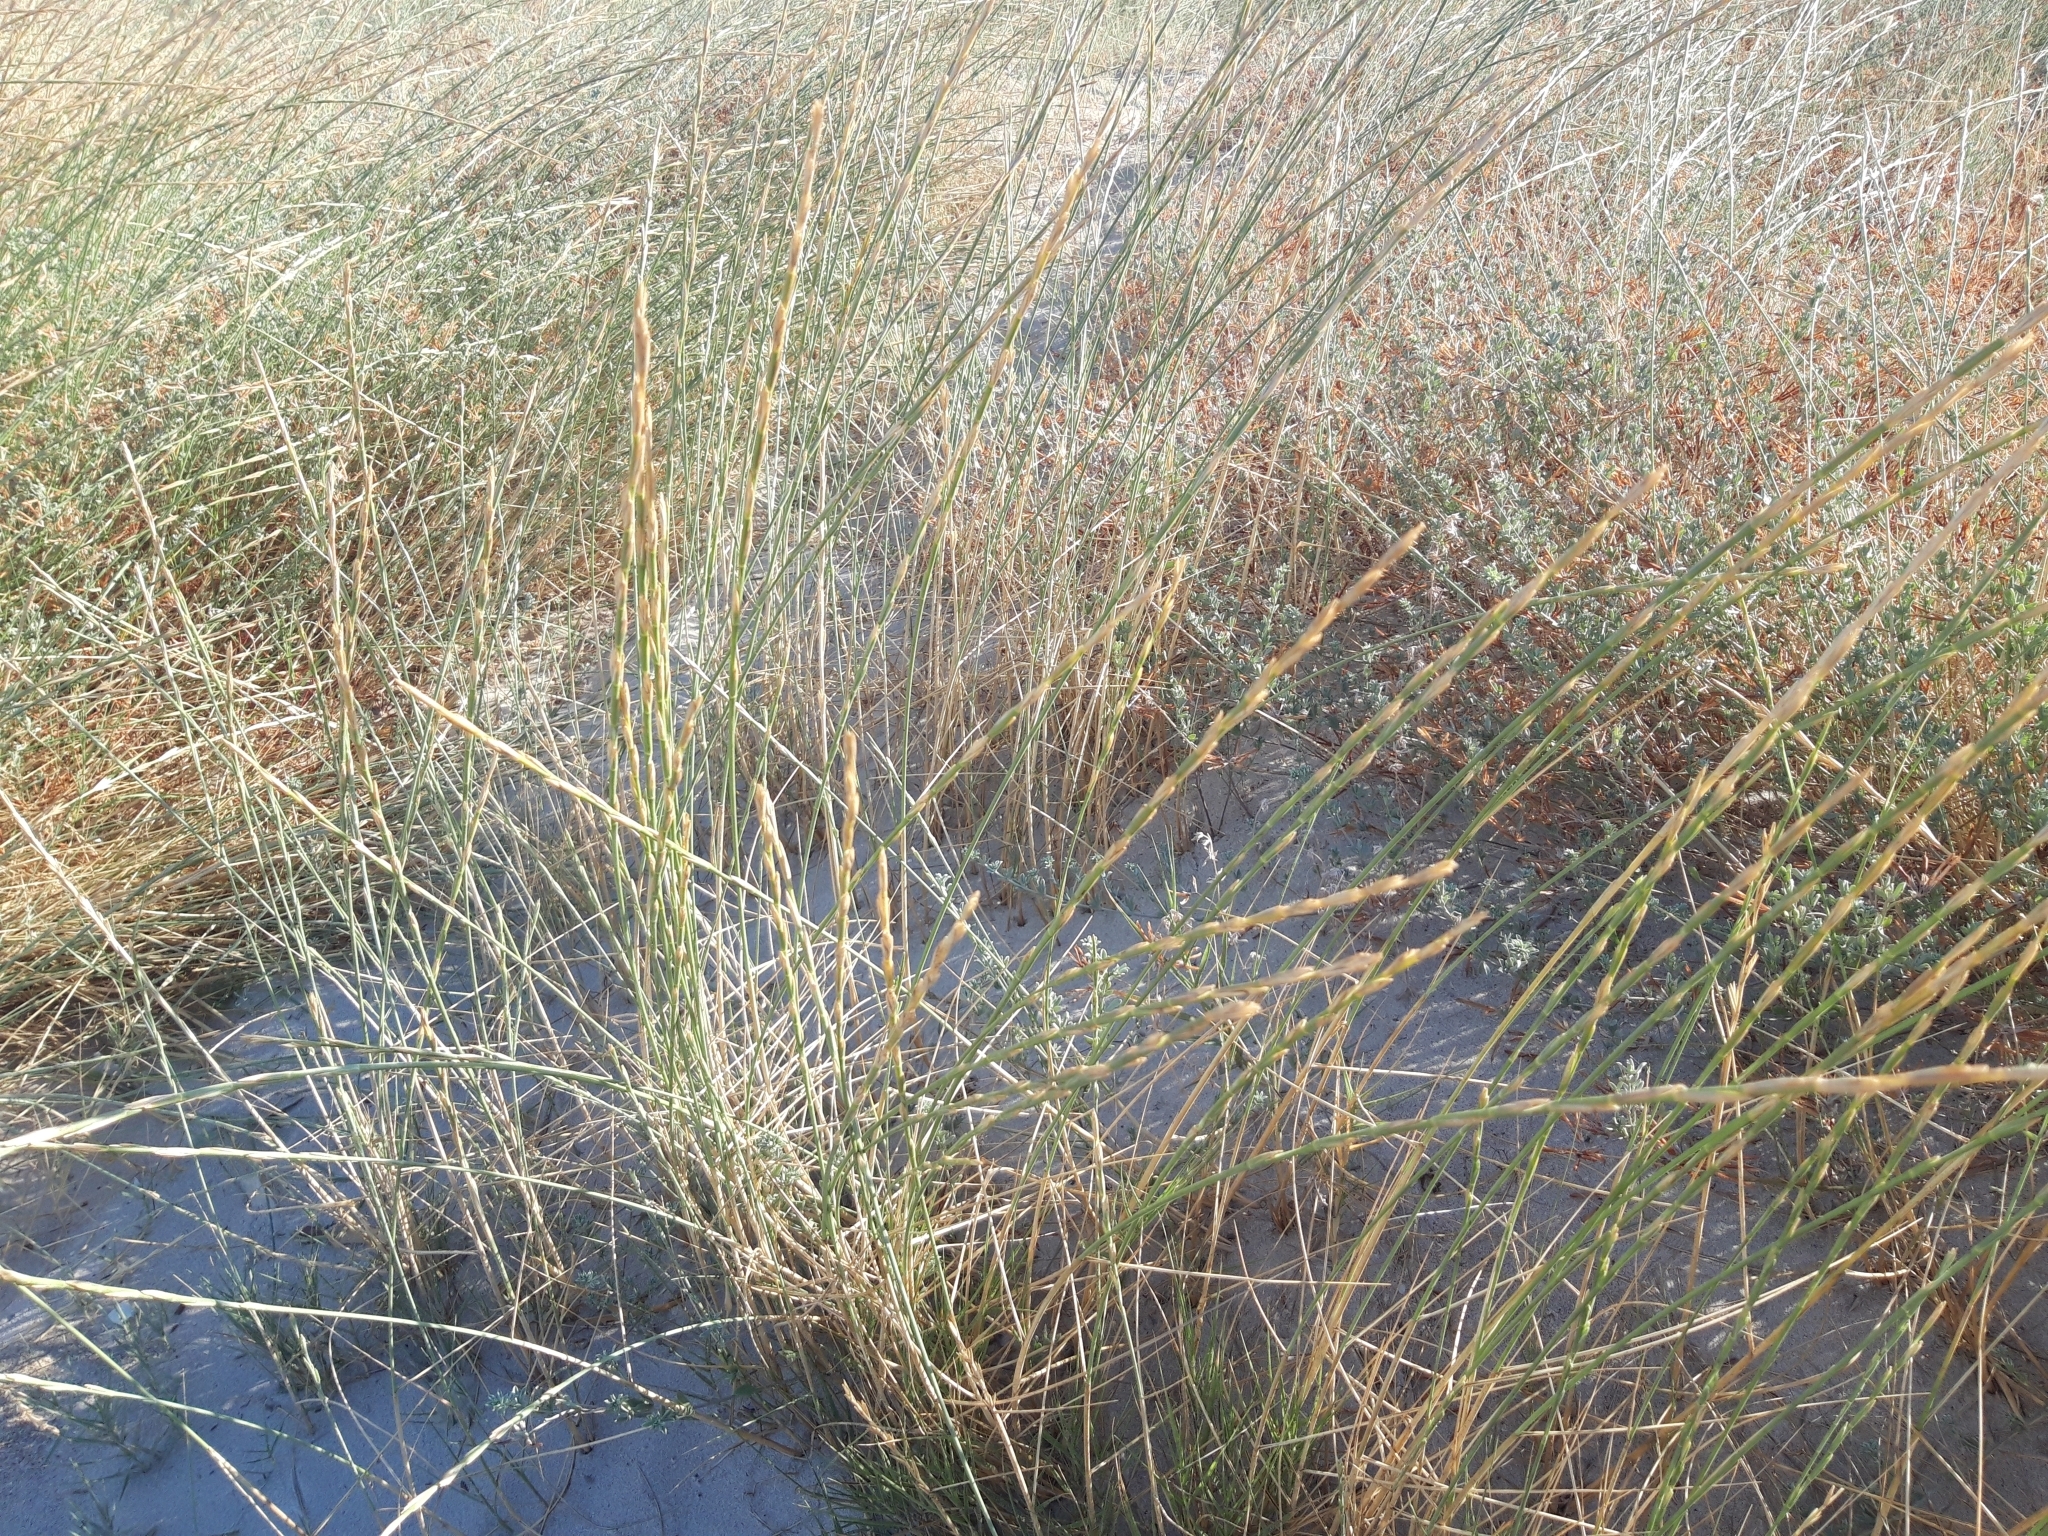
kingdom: Plantae
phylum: Tracheophyta
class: Liliopsida
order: Poales
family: Poaceae
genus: Thinopyrum
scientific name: Thinopyrum junceum
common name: Russian wheatgrass
